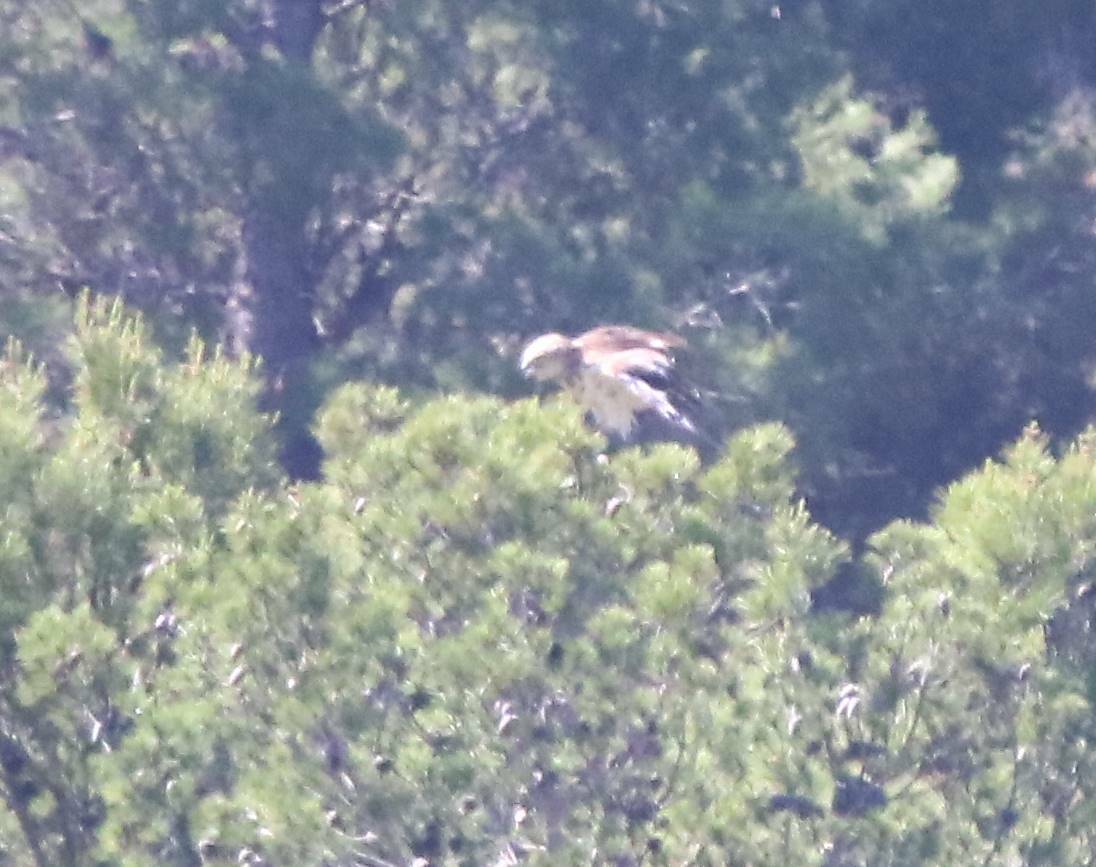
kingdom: Animalia
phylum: Chordata
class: Aves
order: Accipitriformes
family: Accipitridae
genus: Circaetus
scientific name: Circaetus gallicus
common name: Short-toed snake eagle
